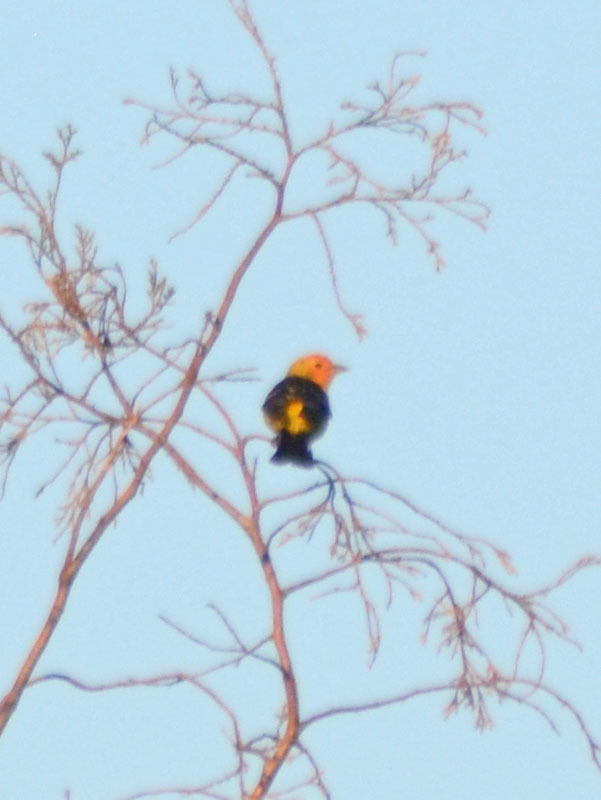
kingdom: Animalia
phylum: Chordata
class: Aves
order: Passeriformes
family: Cardinalidae
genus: Piranga
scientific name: Piranga ludoviciana
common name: Western tanager
